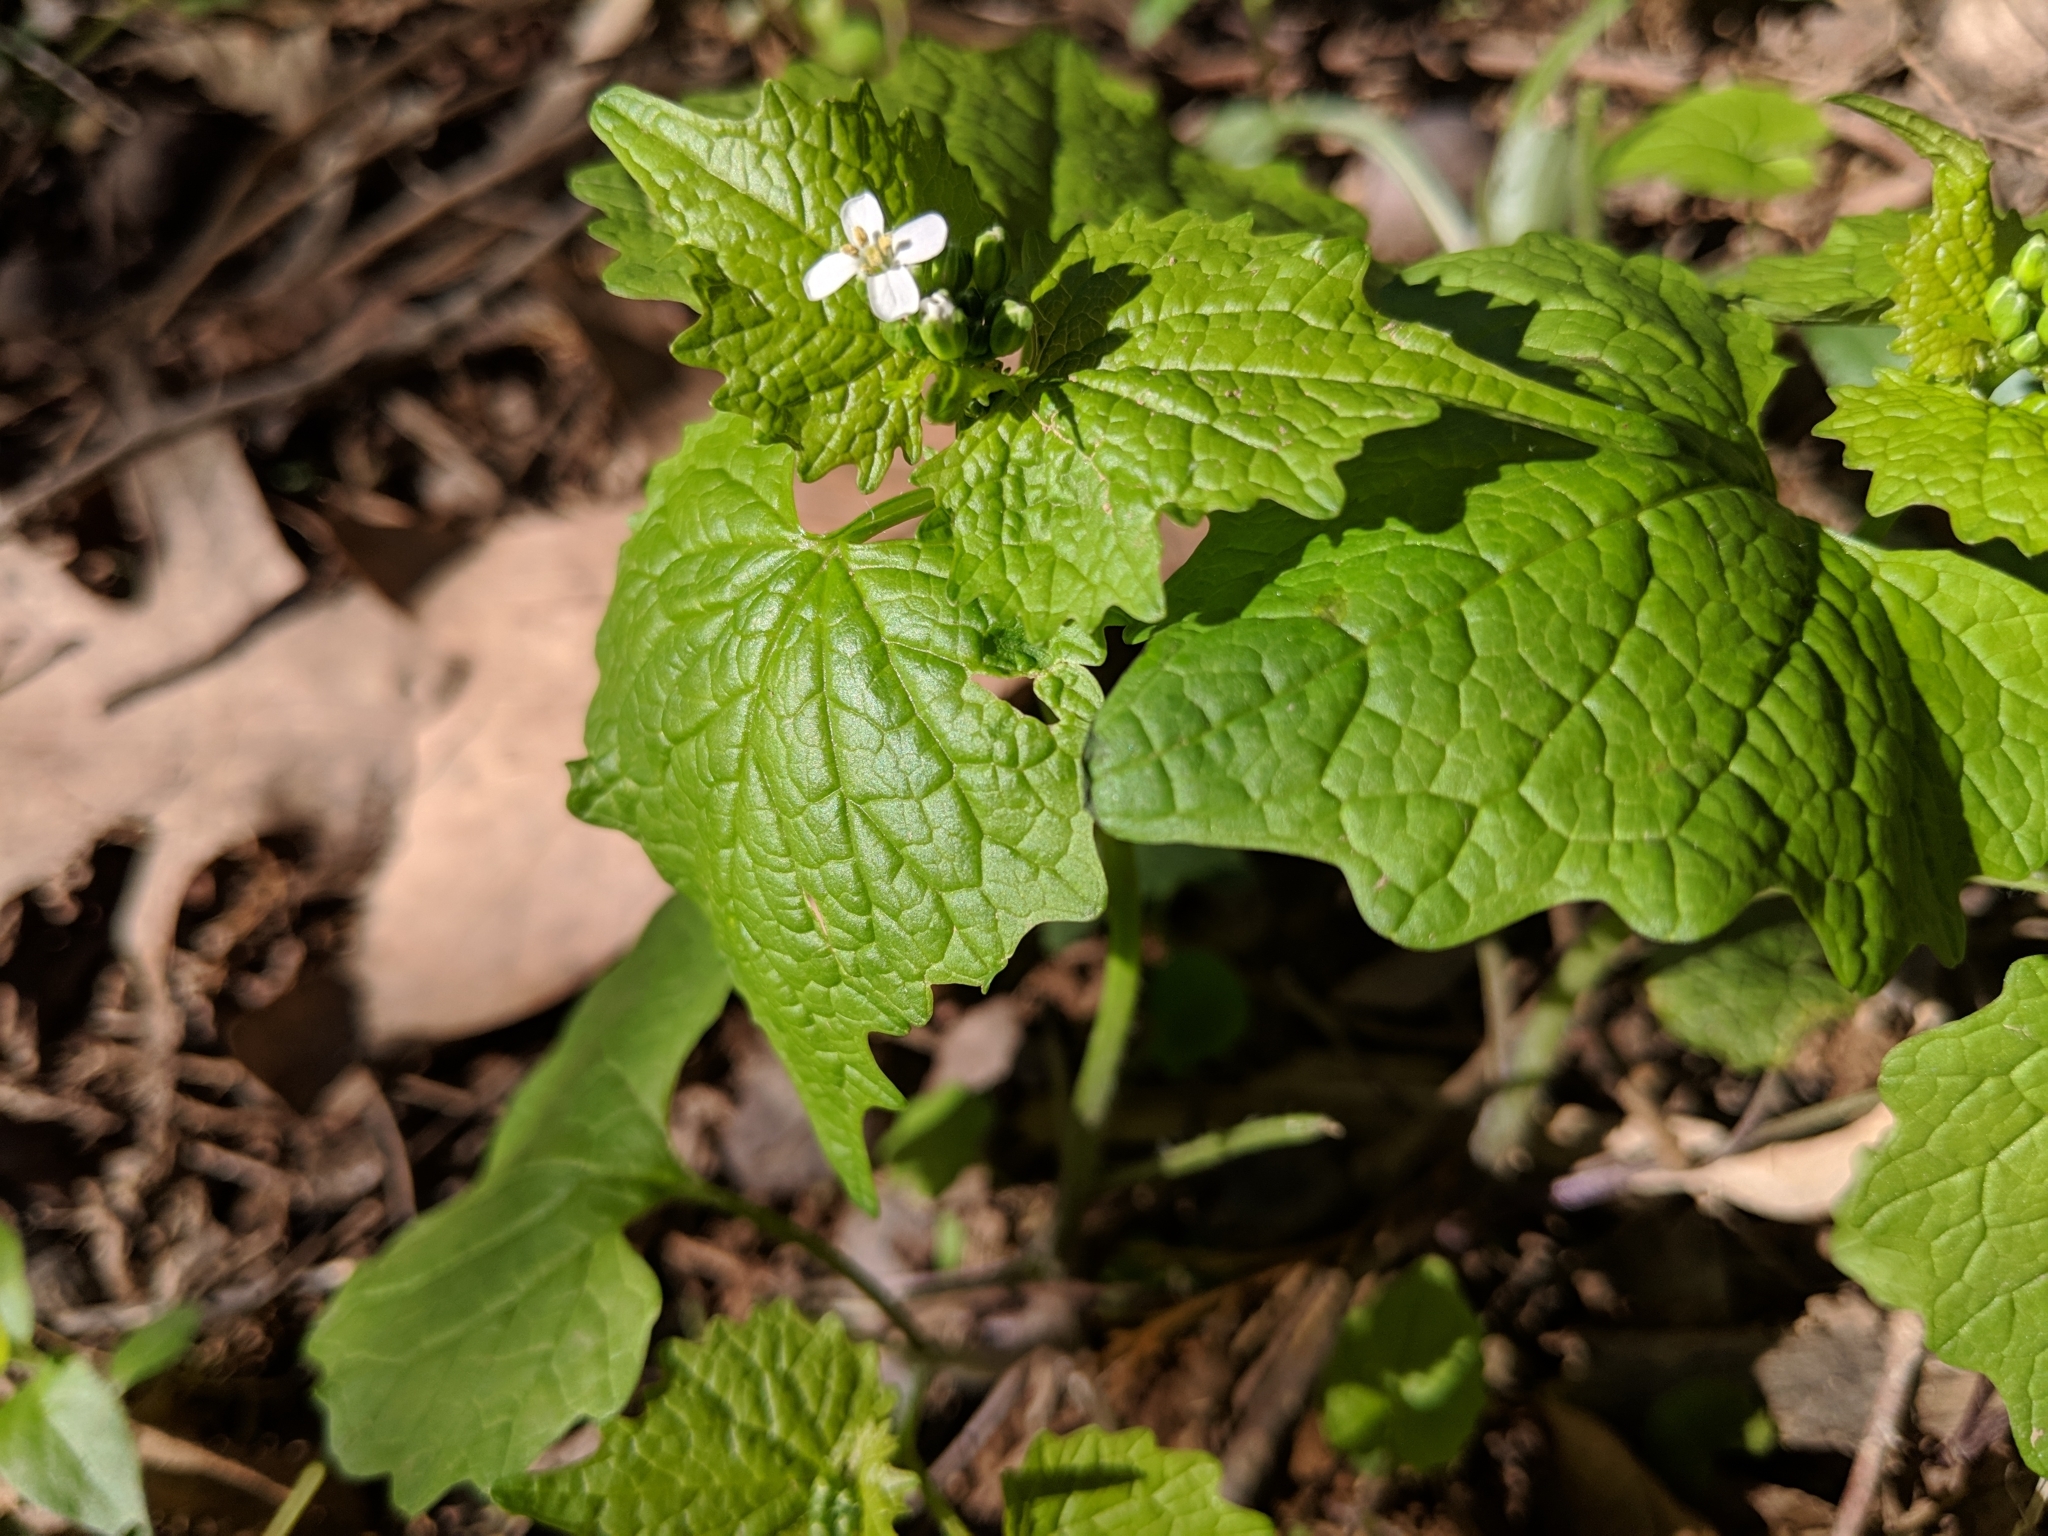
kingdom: Plantae
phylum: Tracheophyta
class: Magnoliopsida
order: Brassicales
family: Brassicaceae
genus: Alliaria
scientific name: Alliaria petiolata
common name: Garlic mustard
